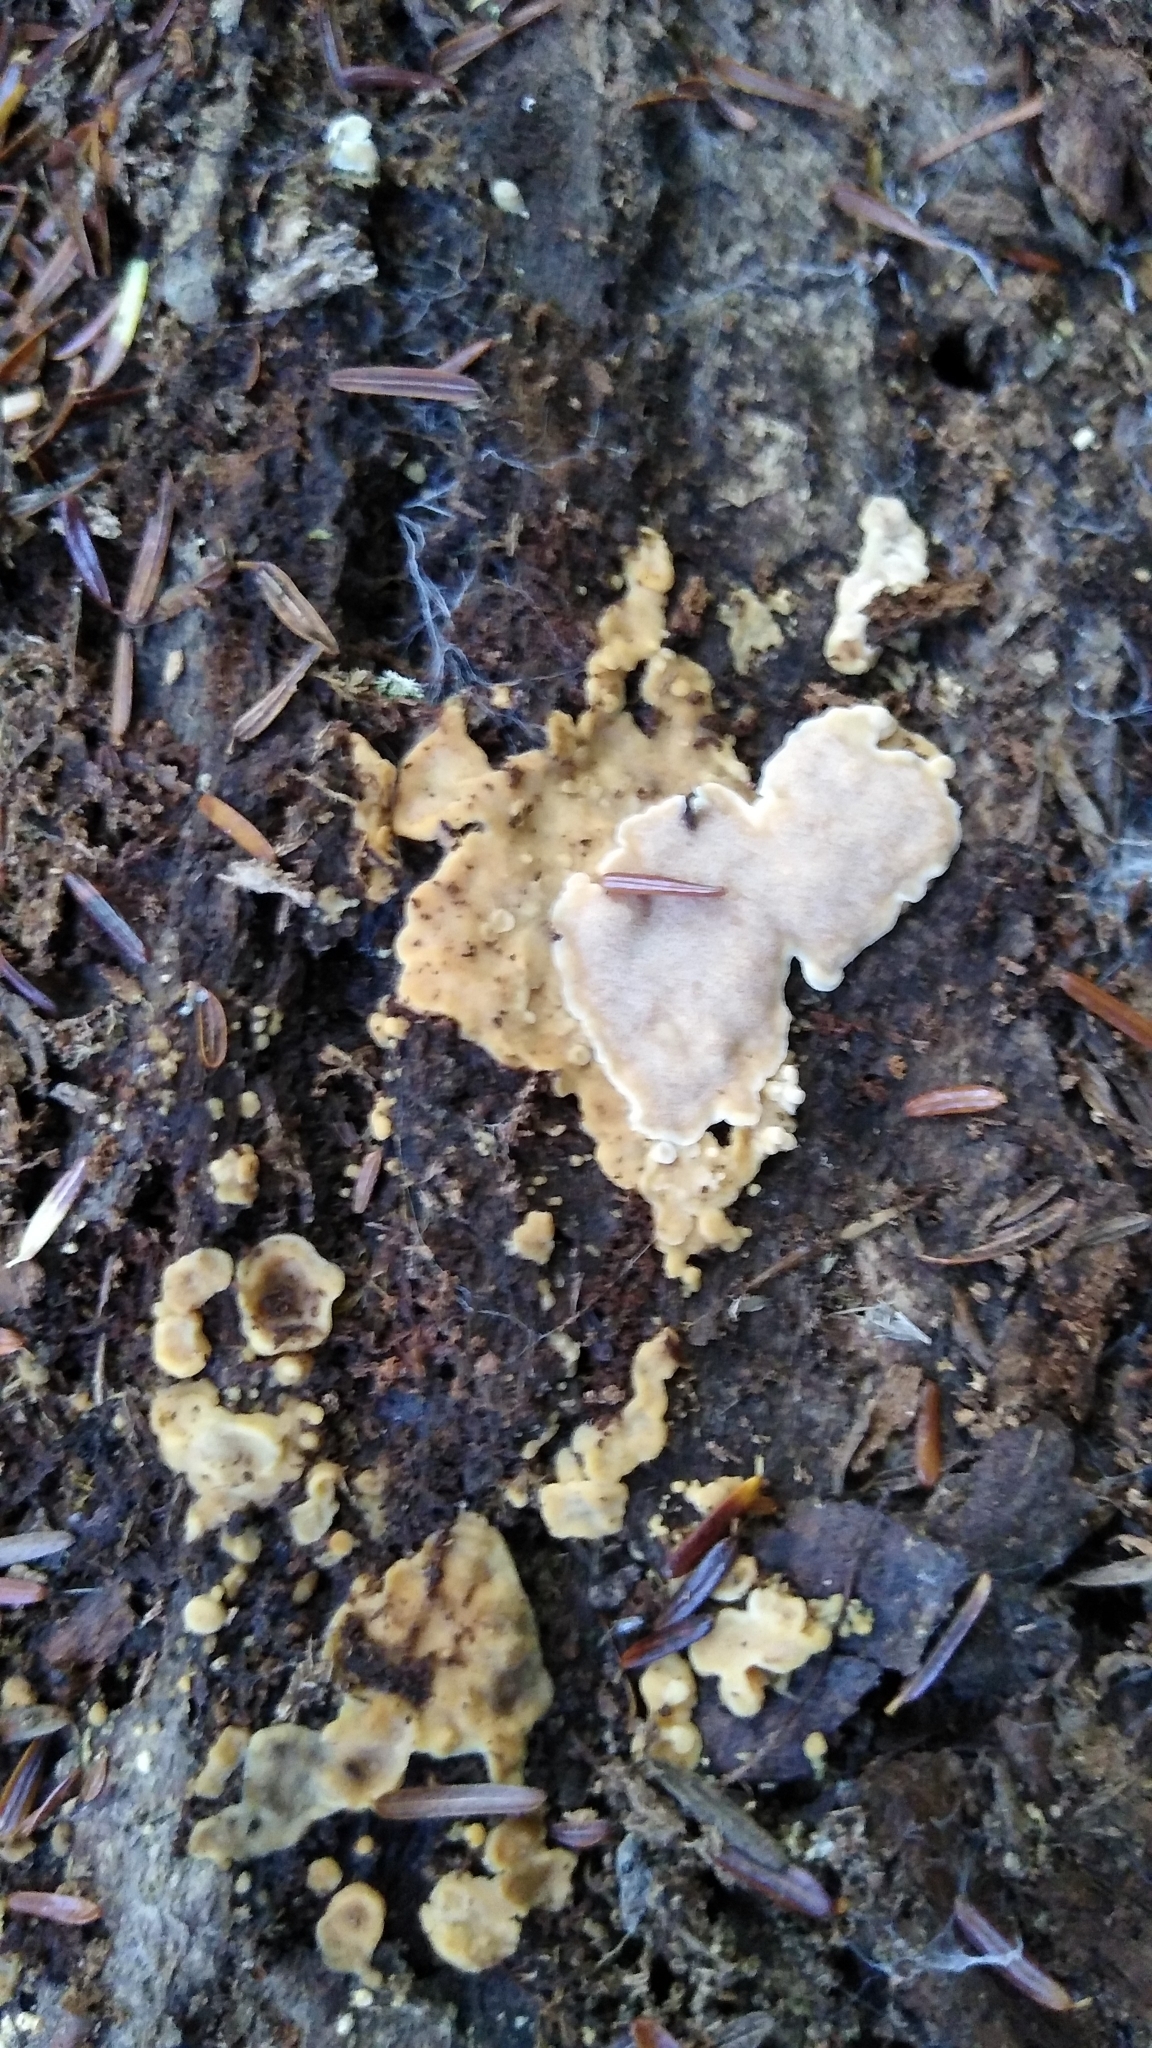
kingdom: Fungi
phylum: Basidiomycota
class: Agaricomycetes
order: Polyporales
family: Meripilaceae
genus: Rigidoporus
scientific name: Rigidoporus crocatus
